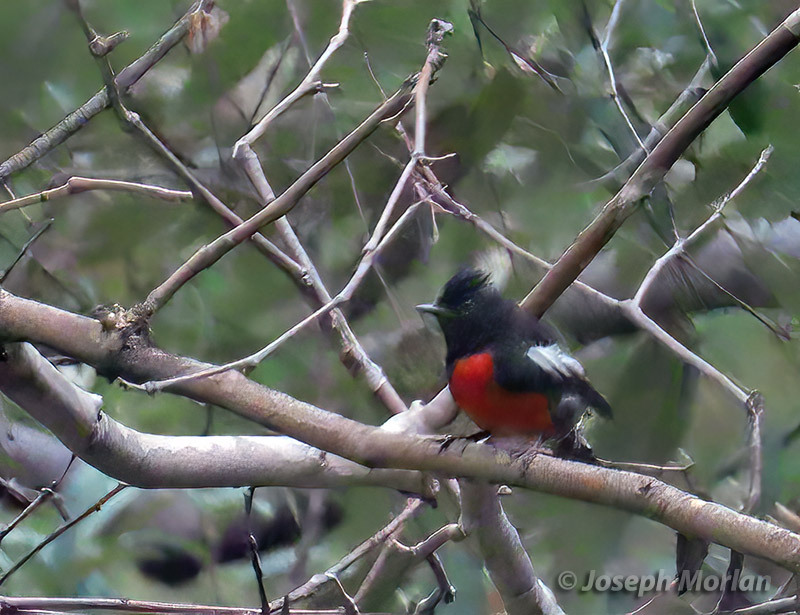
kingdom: Animalia
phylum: Chordata
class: Aves
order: Passeriformes
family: Parulidae
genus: Myioborus
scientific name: Myioborus pictus
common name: Painted whitestart
